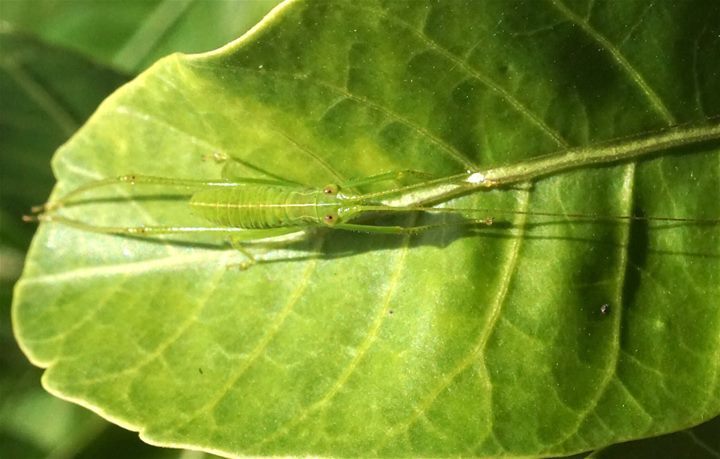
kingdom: Animalia
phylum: Arthropoda
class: Insecta
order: Orthoptera
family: Tettigoniidae
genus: Turpilia
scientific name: Turpilia rostrata
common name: Narrow-beaked katydid
